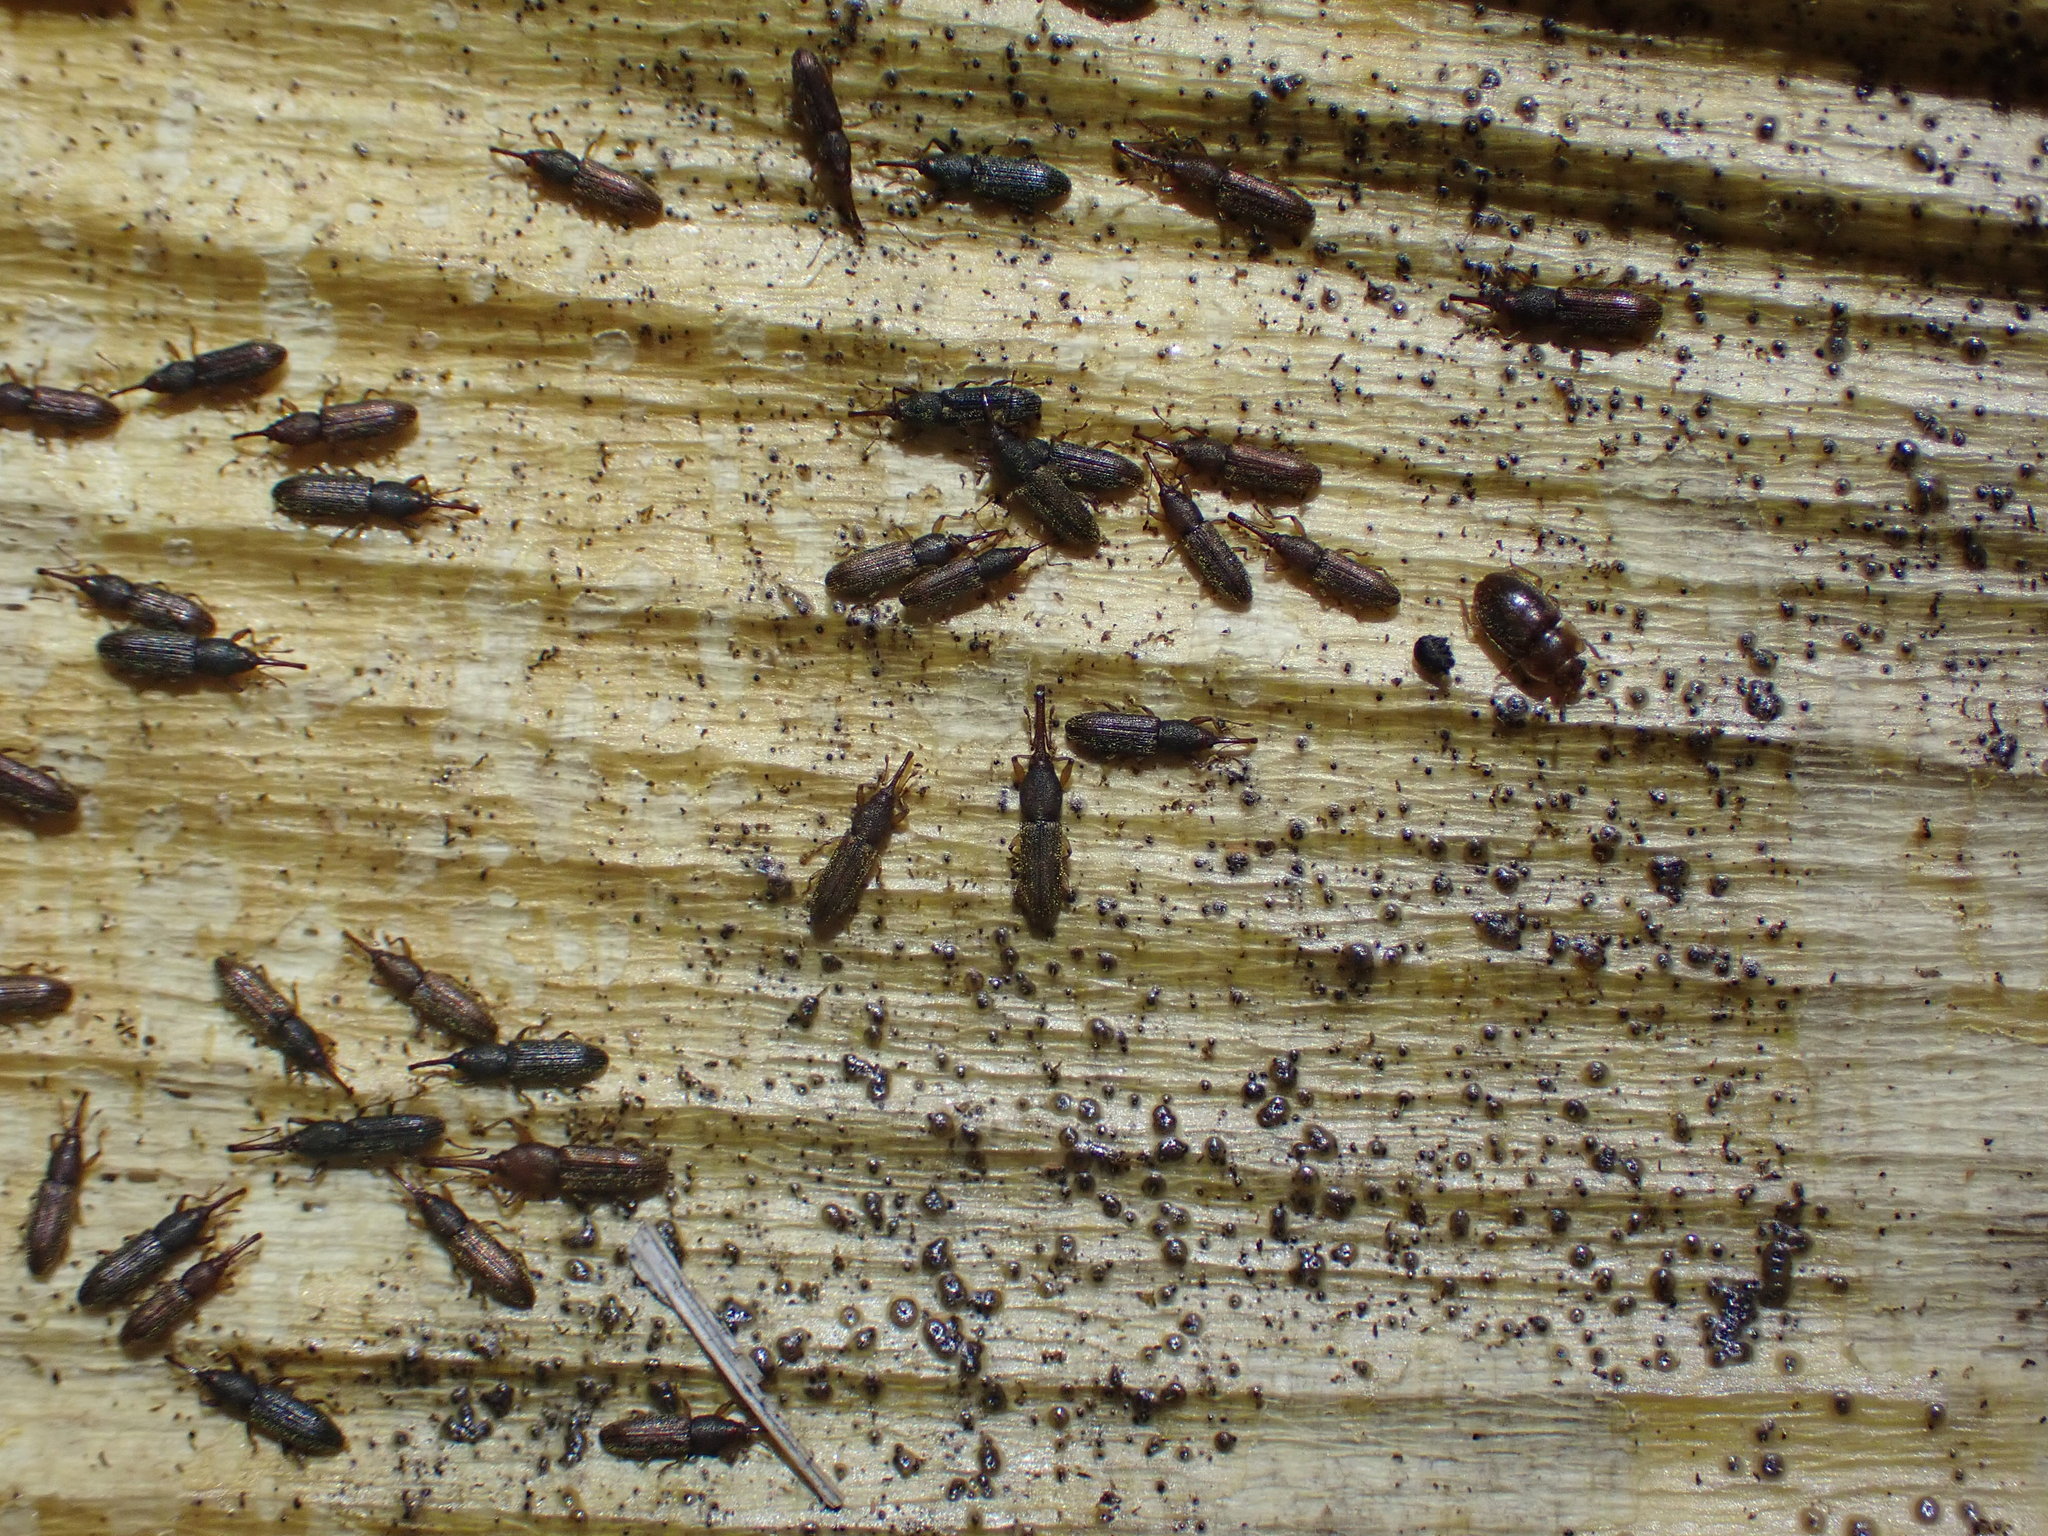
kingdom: Animalia
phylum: Arthropoda
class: Insecta
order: Coleoptera
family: Curculionidae
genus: Arecocryptus
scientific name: Arecocryptus bellus
